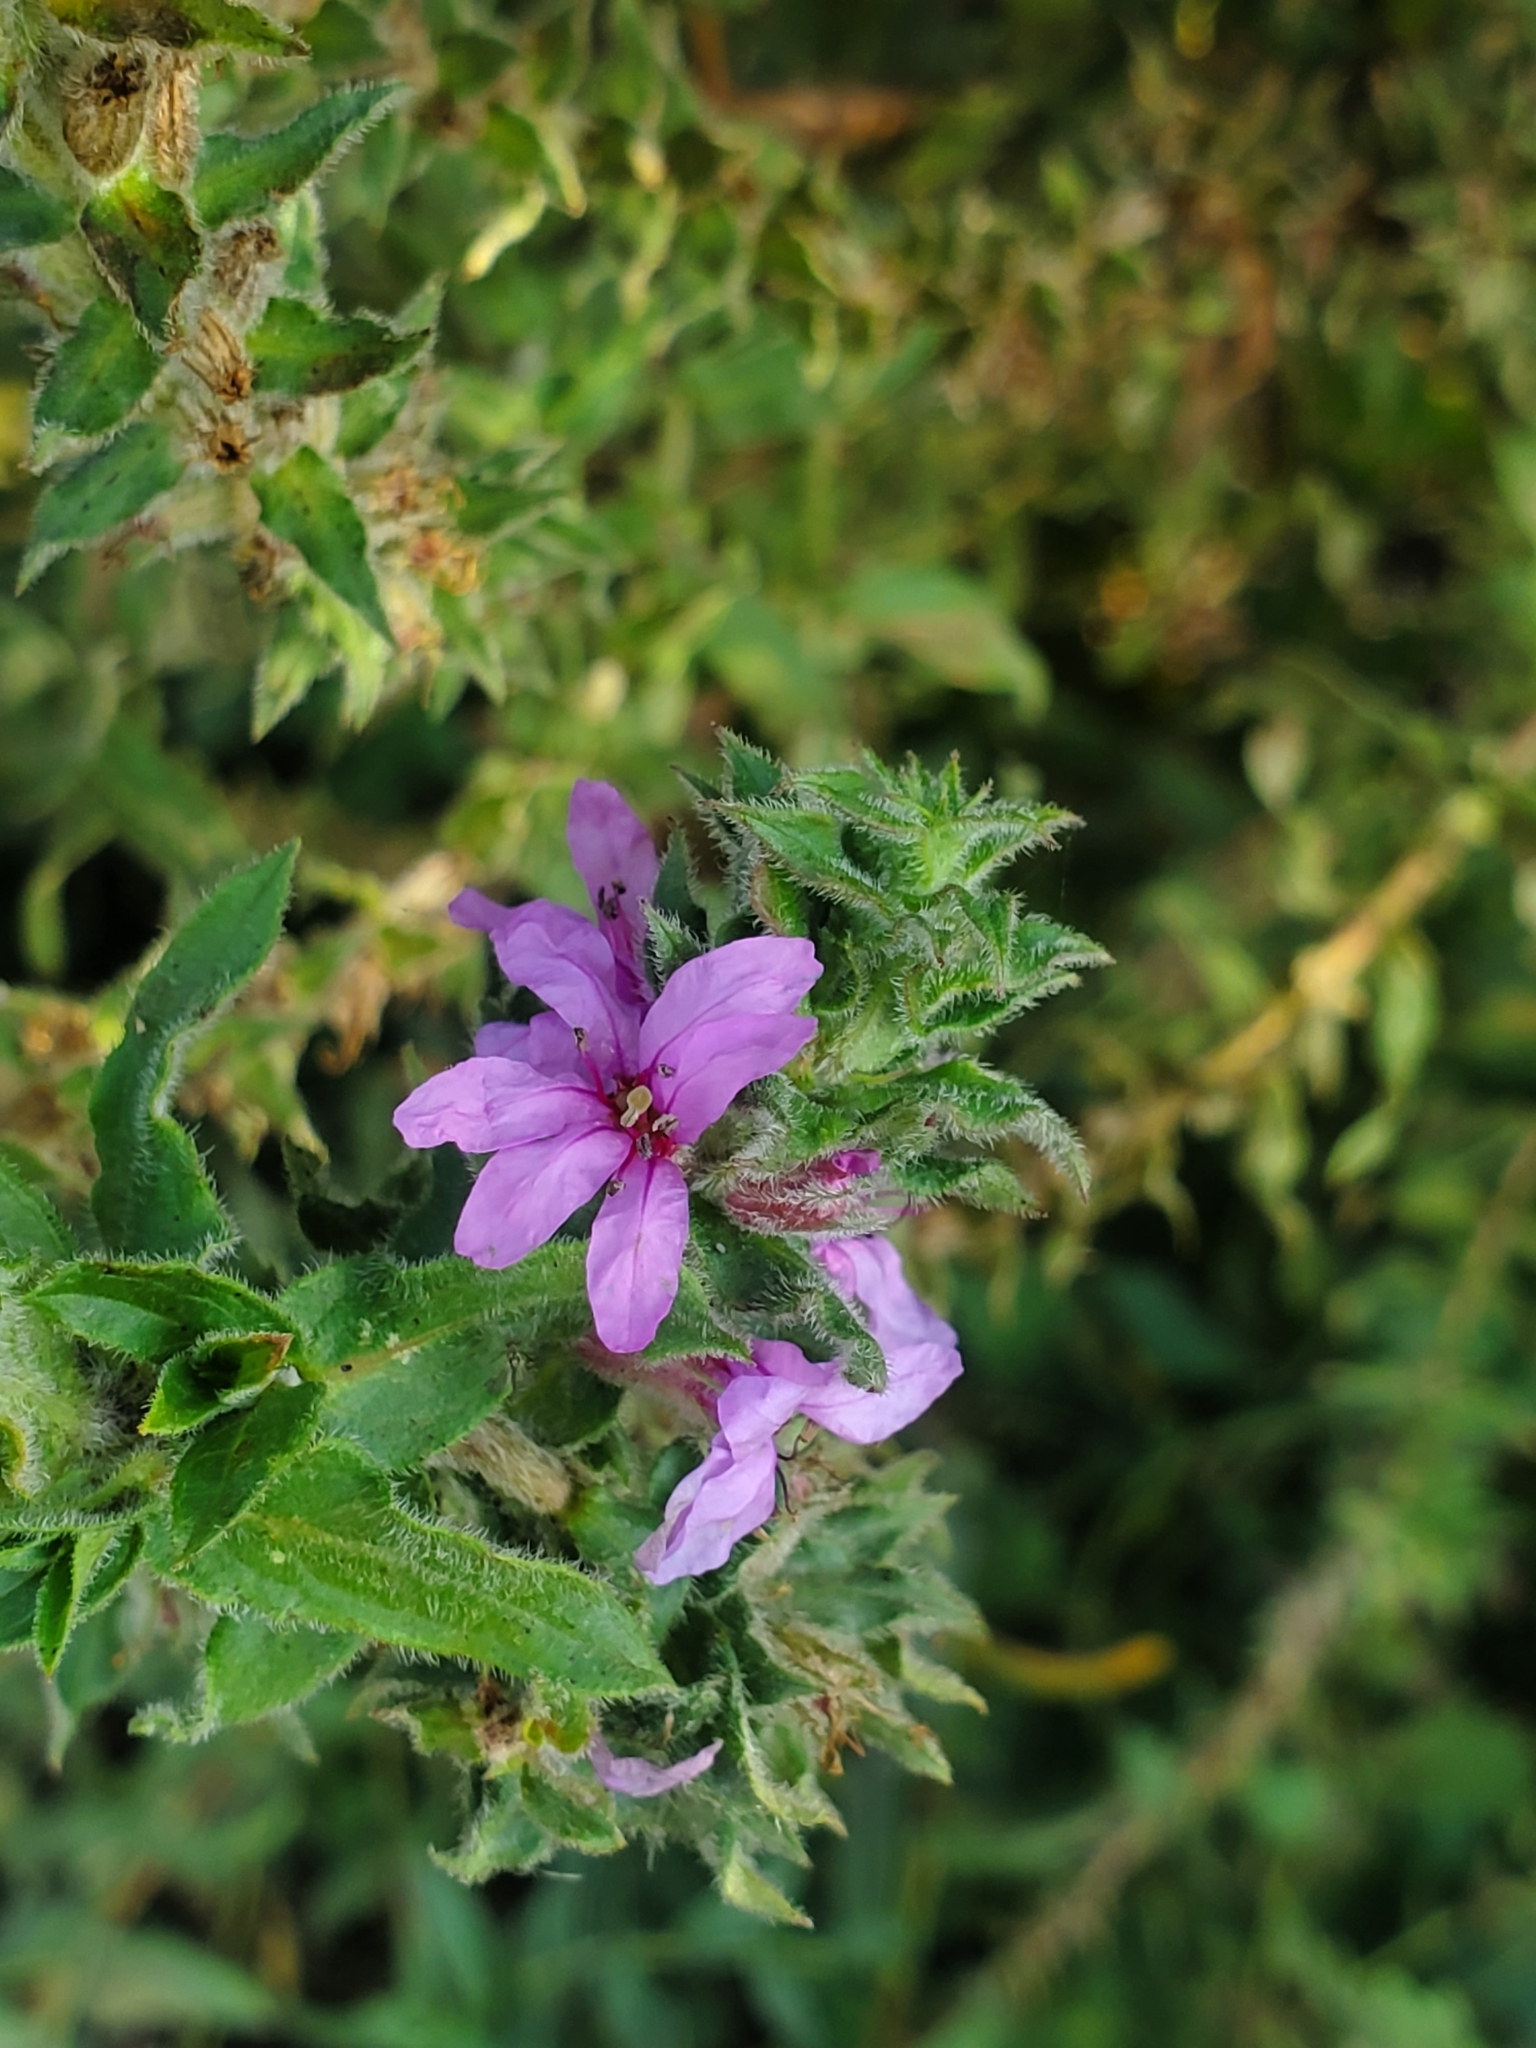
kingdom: Plantae
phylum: Tracheophyta
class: Magnoliopsida
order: Myrtales
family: Lythraceae
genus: Lythrum
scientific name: Lythrum salicaria
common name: Purple loosestrife
